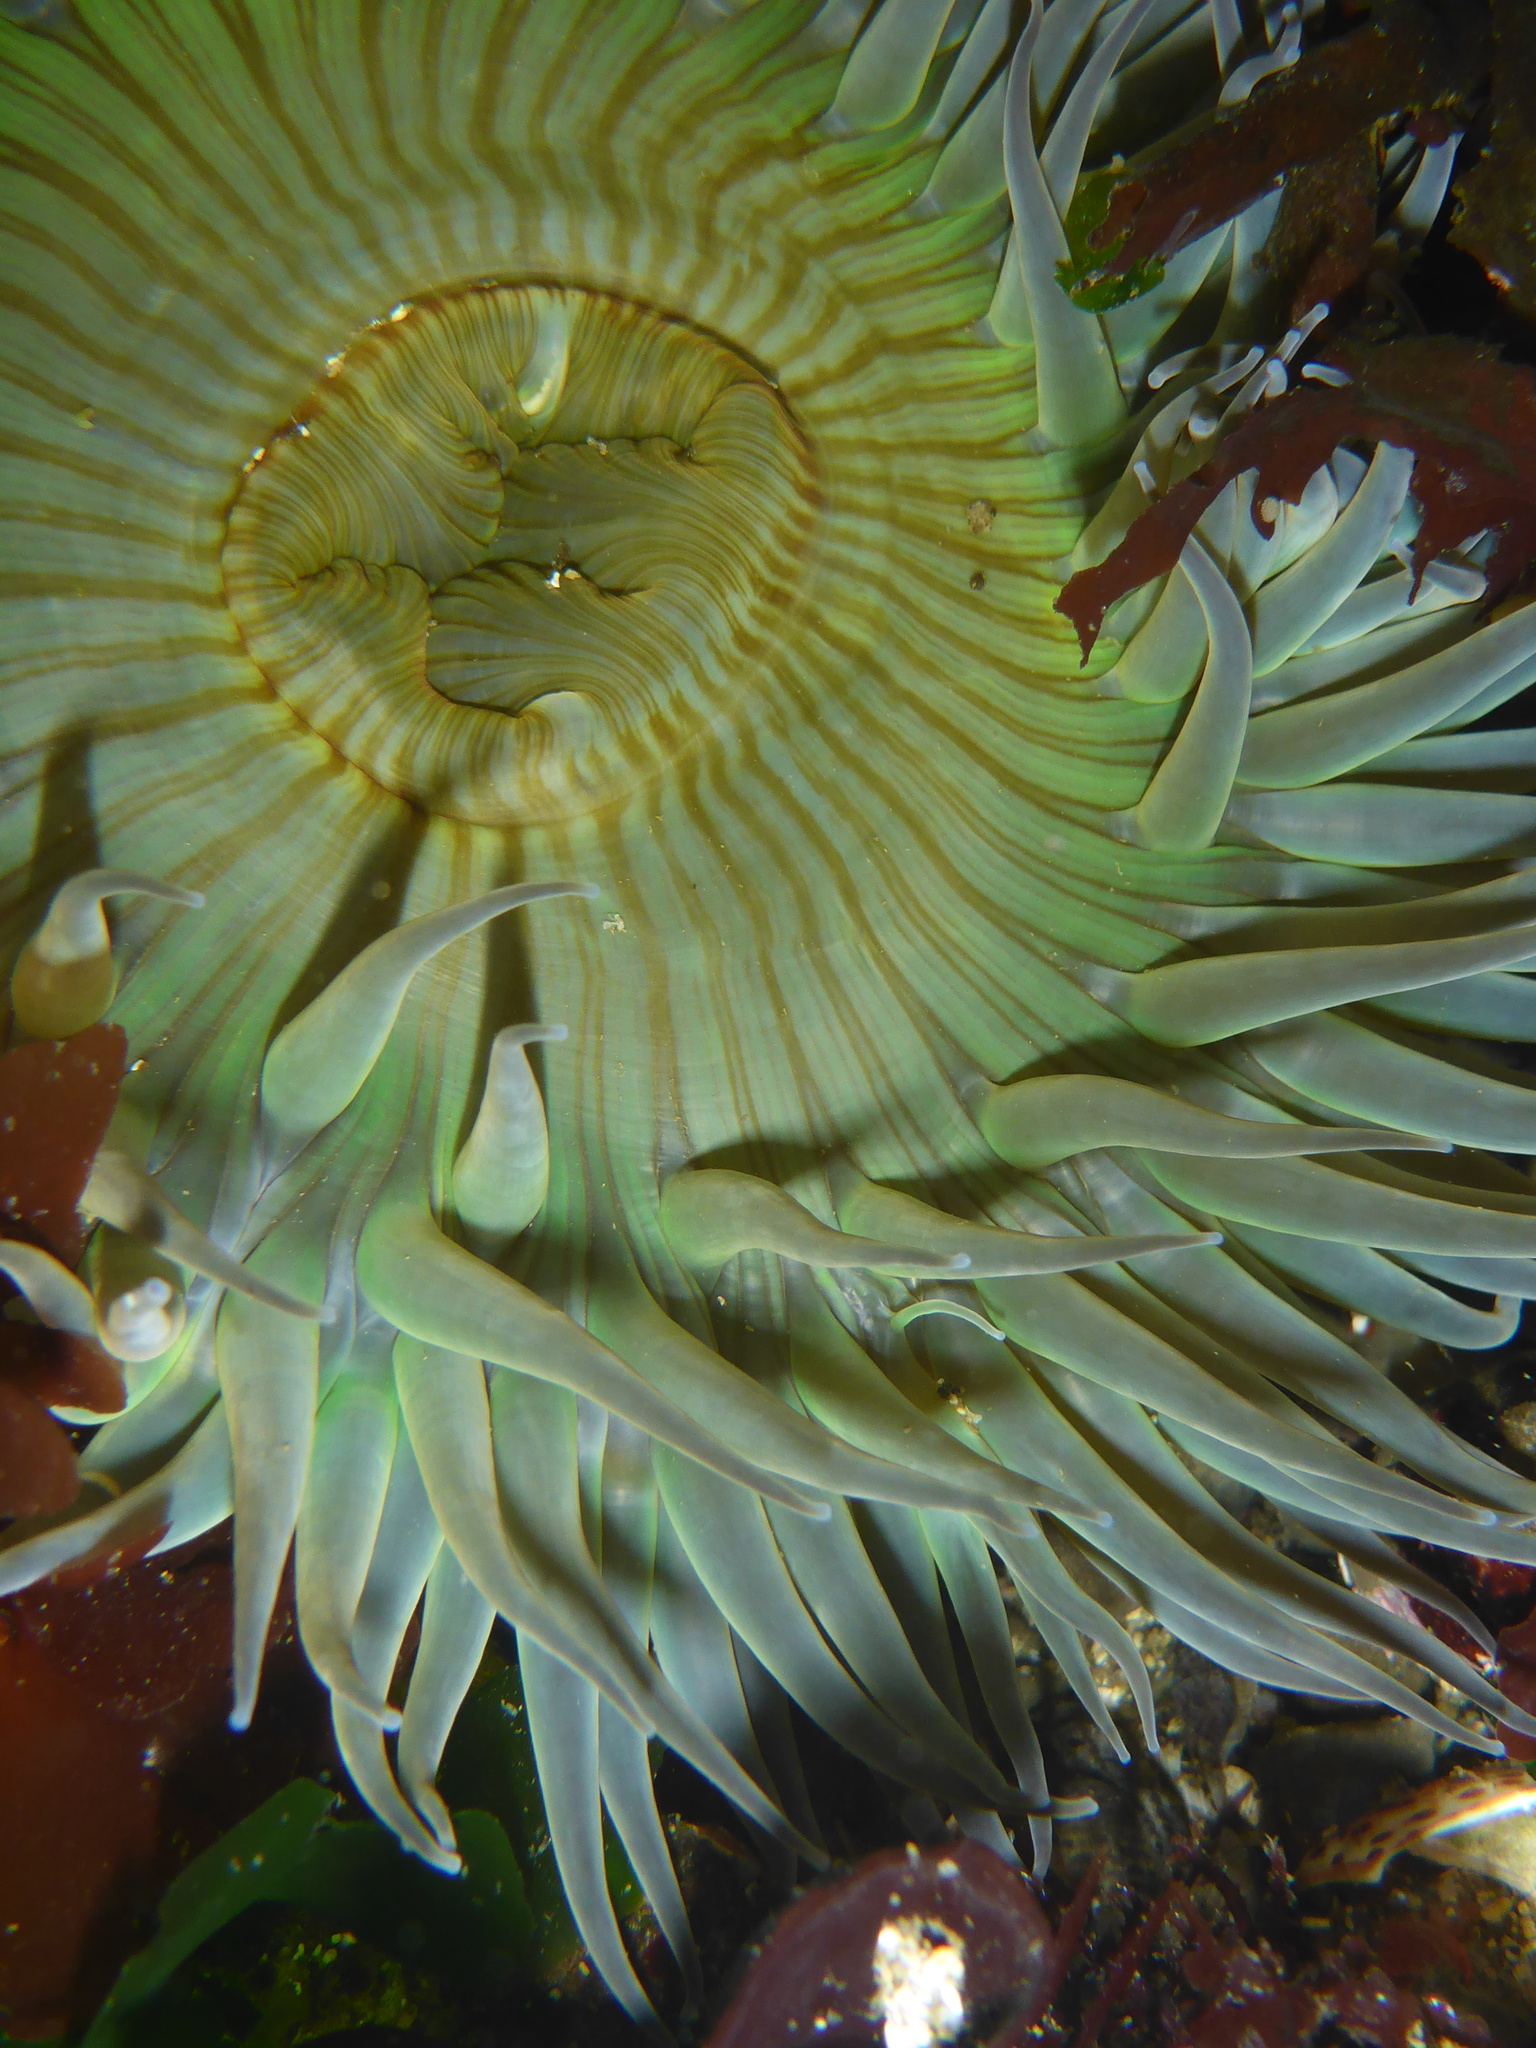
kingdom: Animalia
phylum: Cnidaria
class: Anthozoa
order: Actiniaria
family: Actiniidae
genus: Anthopleura
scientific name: Anthopleura sola
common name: Sun anemone
